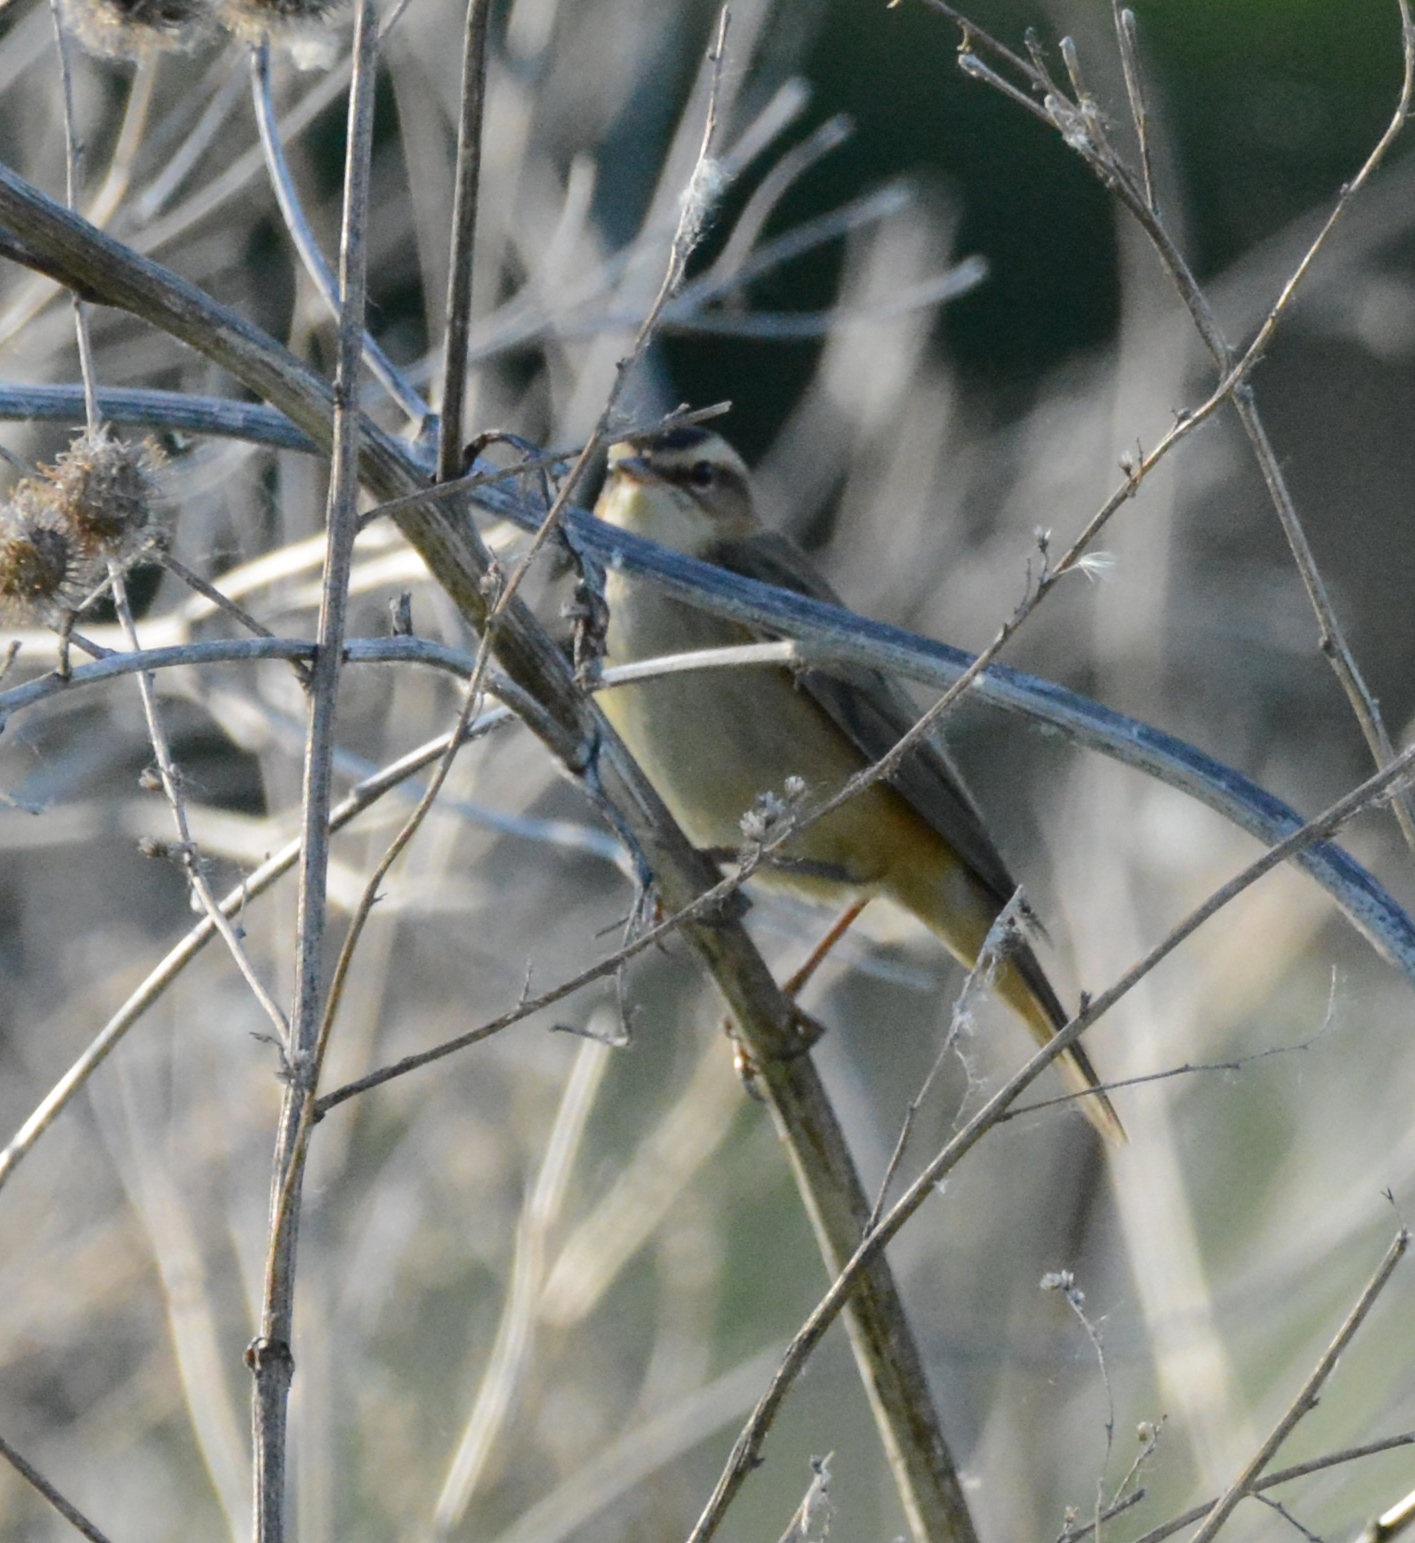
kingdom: Animalia
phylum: Chordata
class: Aves
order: Passeriformes
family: Acrocephalidae
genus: Acrocephalus
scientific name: Acrocephalus schoenobaenus
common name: Sedge warbler
